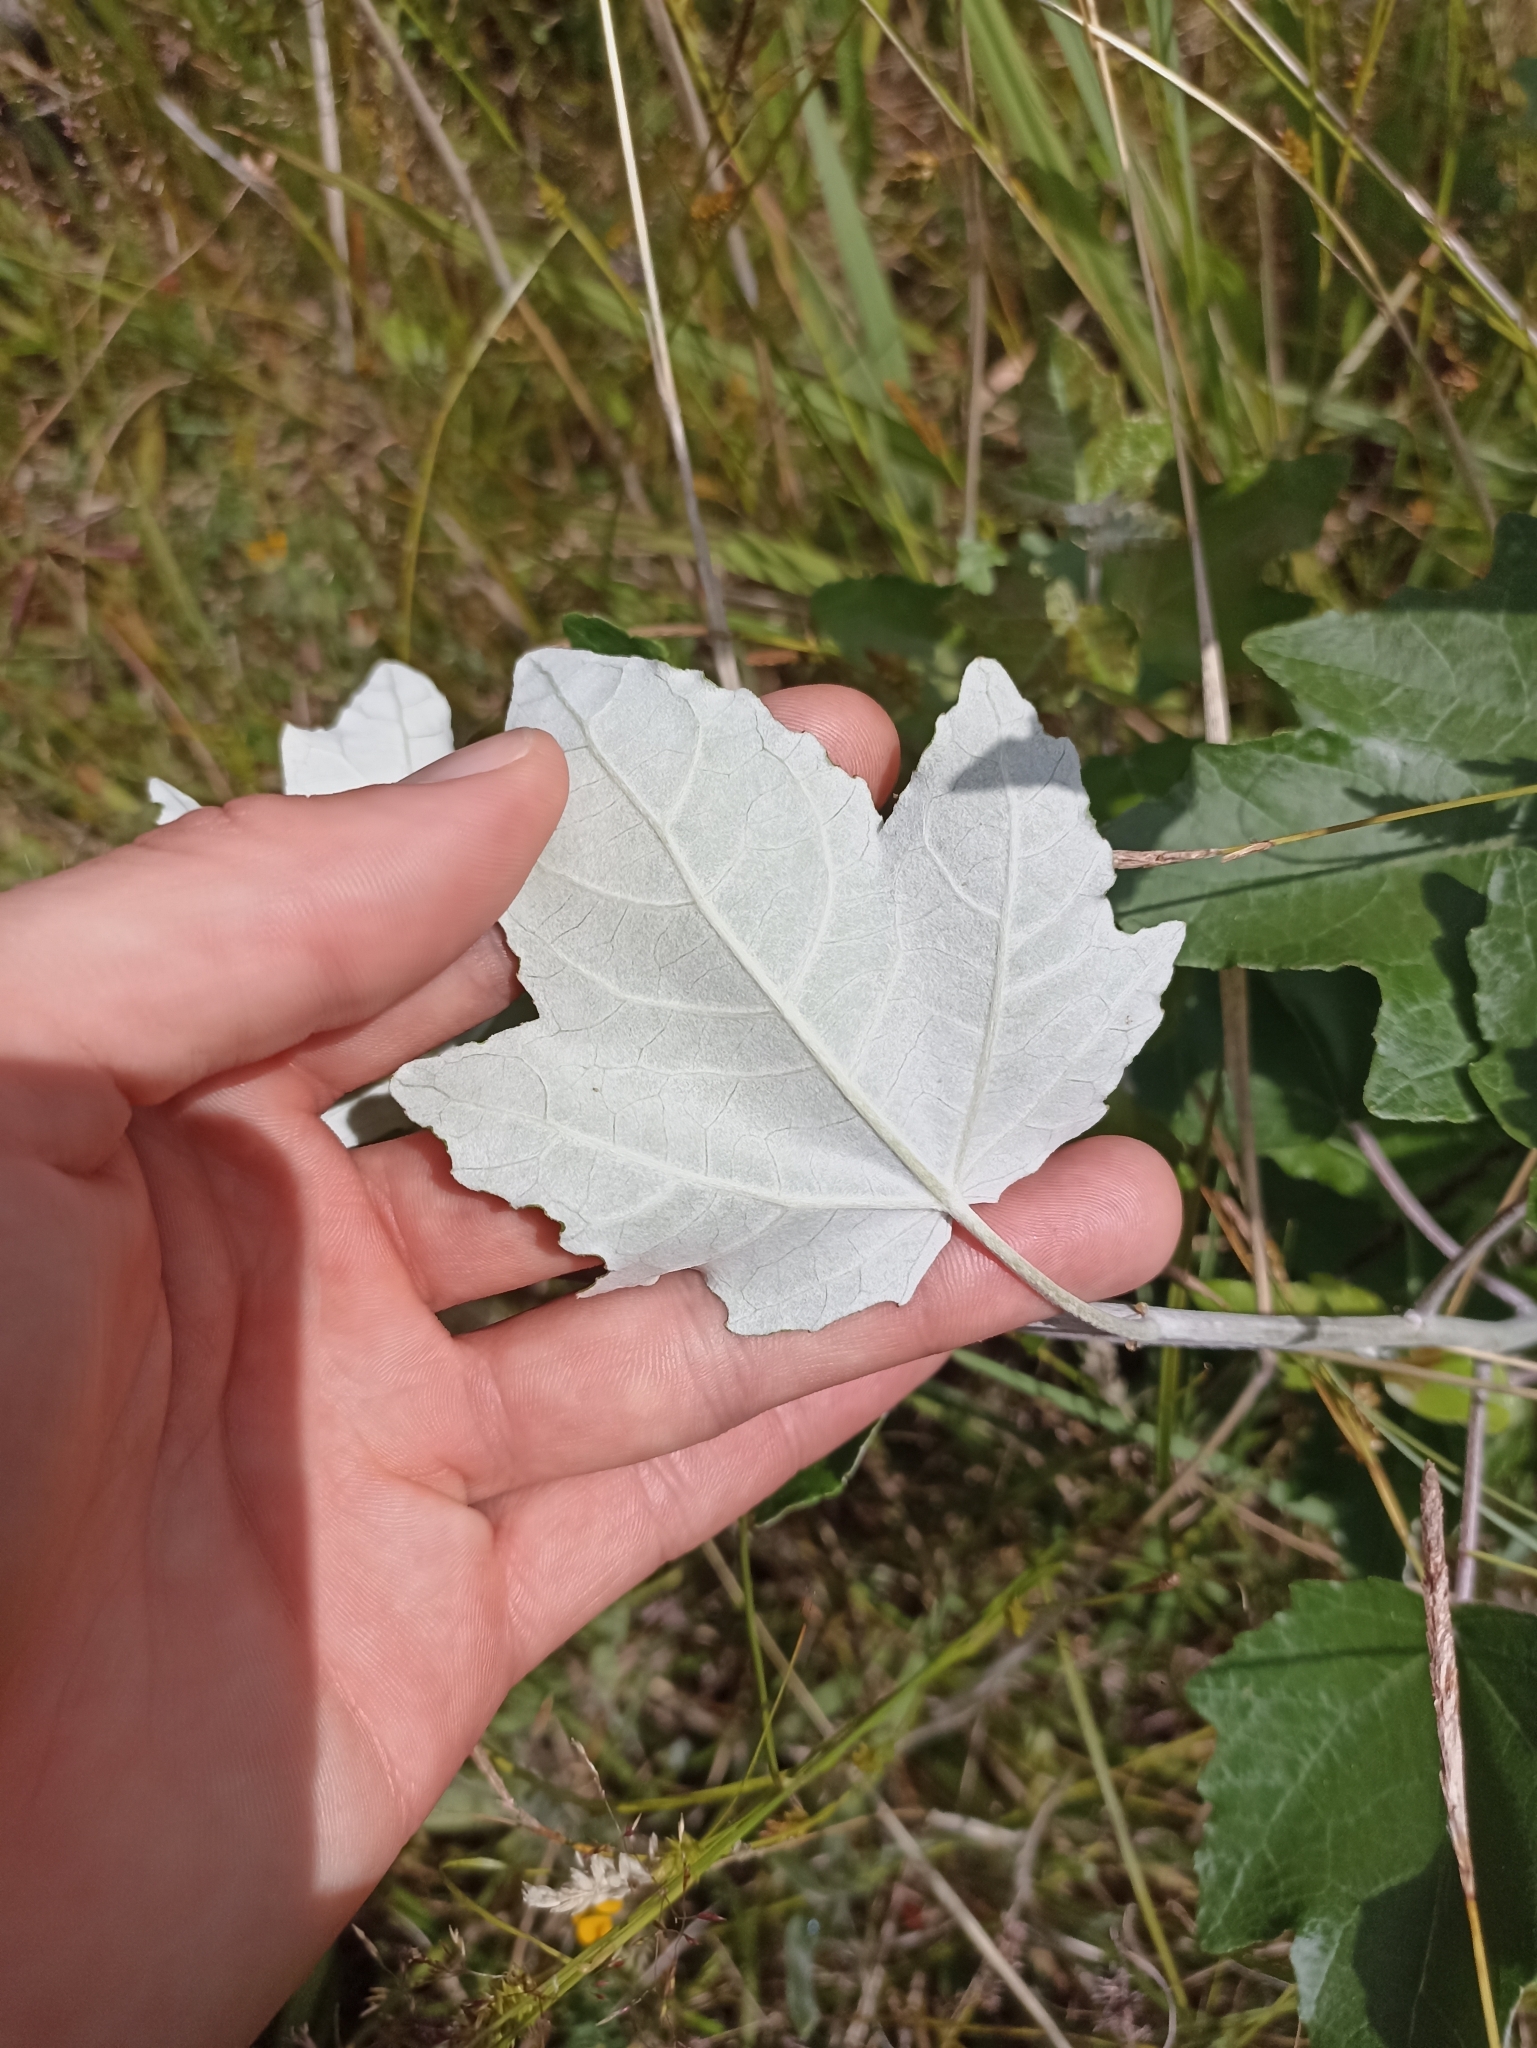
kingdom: Plantae
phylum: Tracheophyta
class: Magnoliopsida
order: Malpighiales
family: Salicaceae
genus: Populus
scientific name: Populus alba
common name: White poplar
